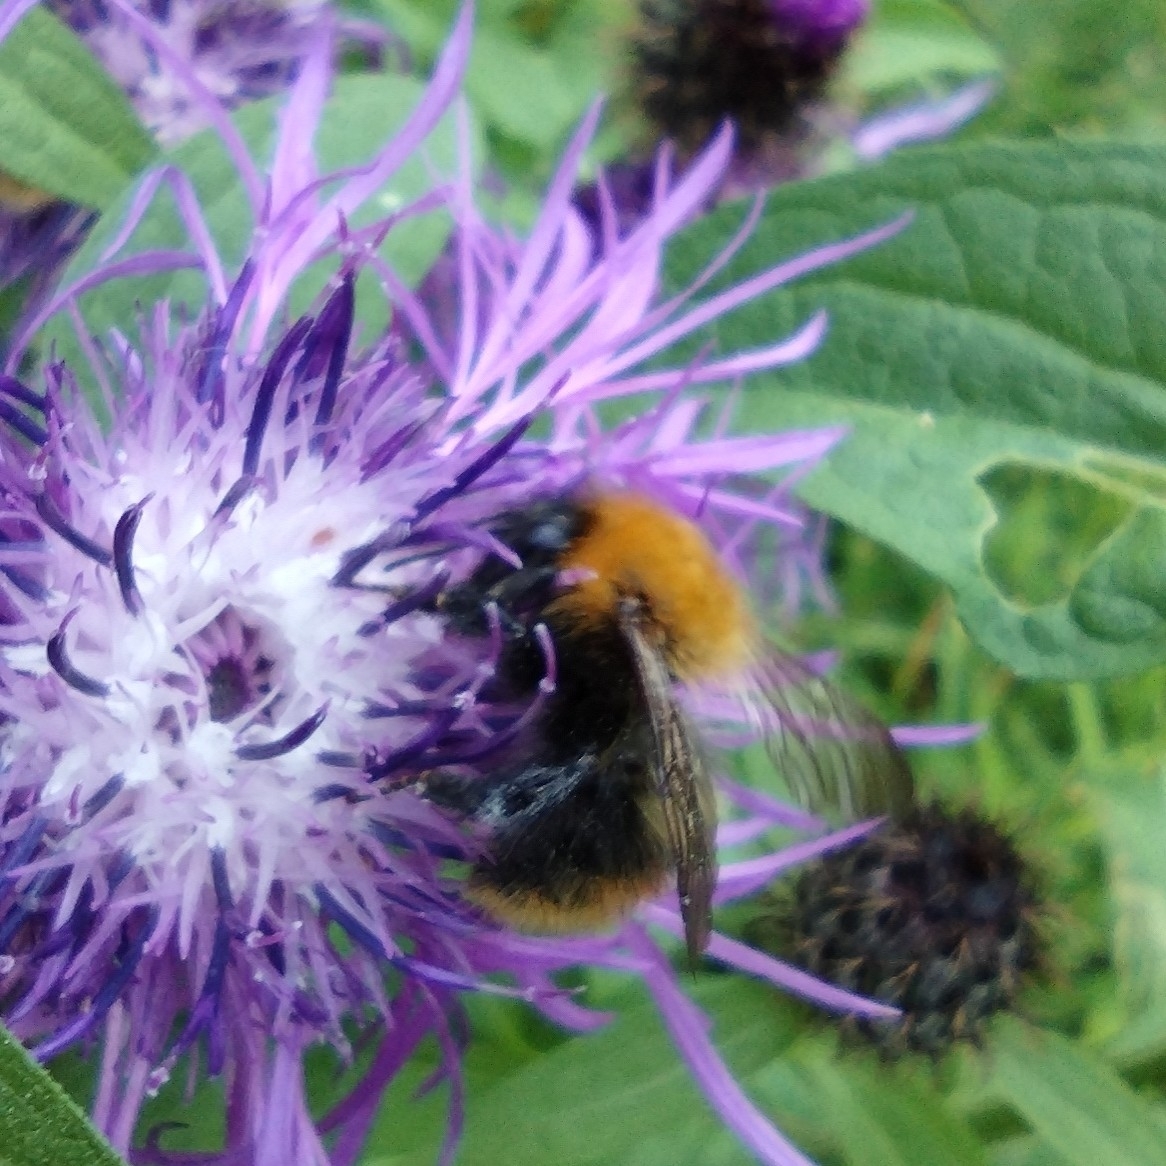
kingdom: Animalia
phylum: Arthropoda
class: Insecta
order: Hymenoptera
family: Apidae
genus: Bombus
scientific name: Bombus pascuorum
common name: Common carder bee
